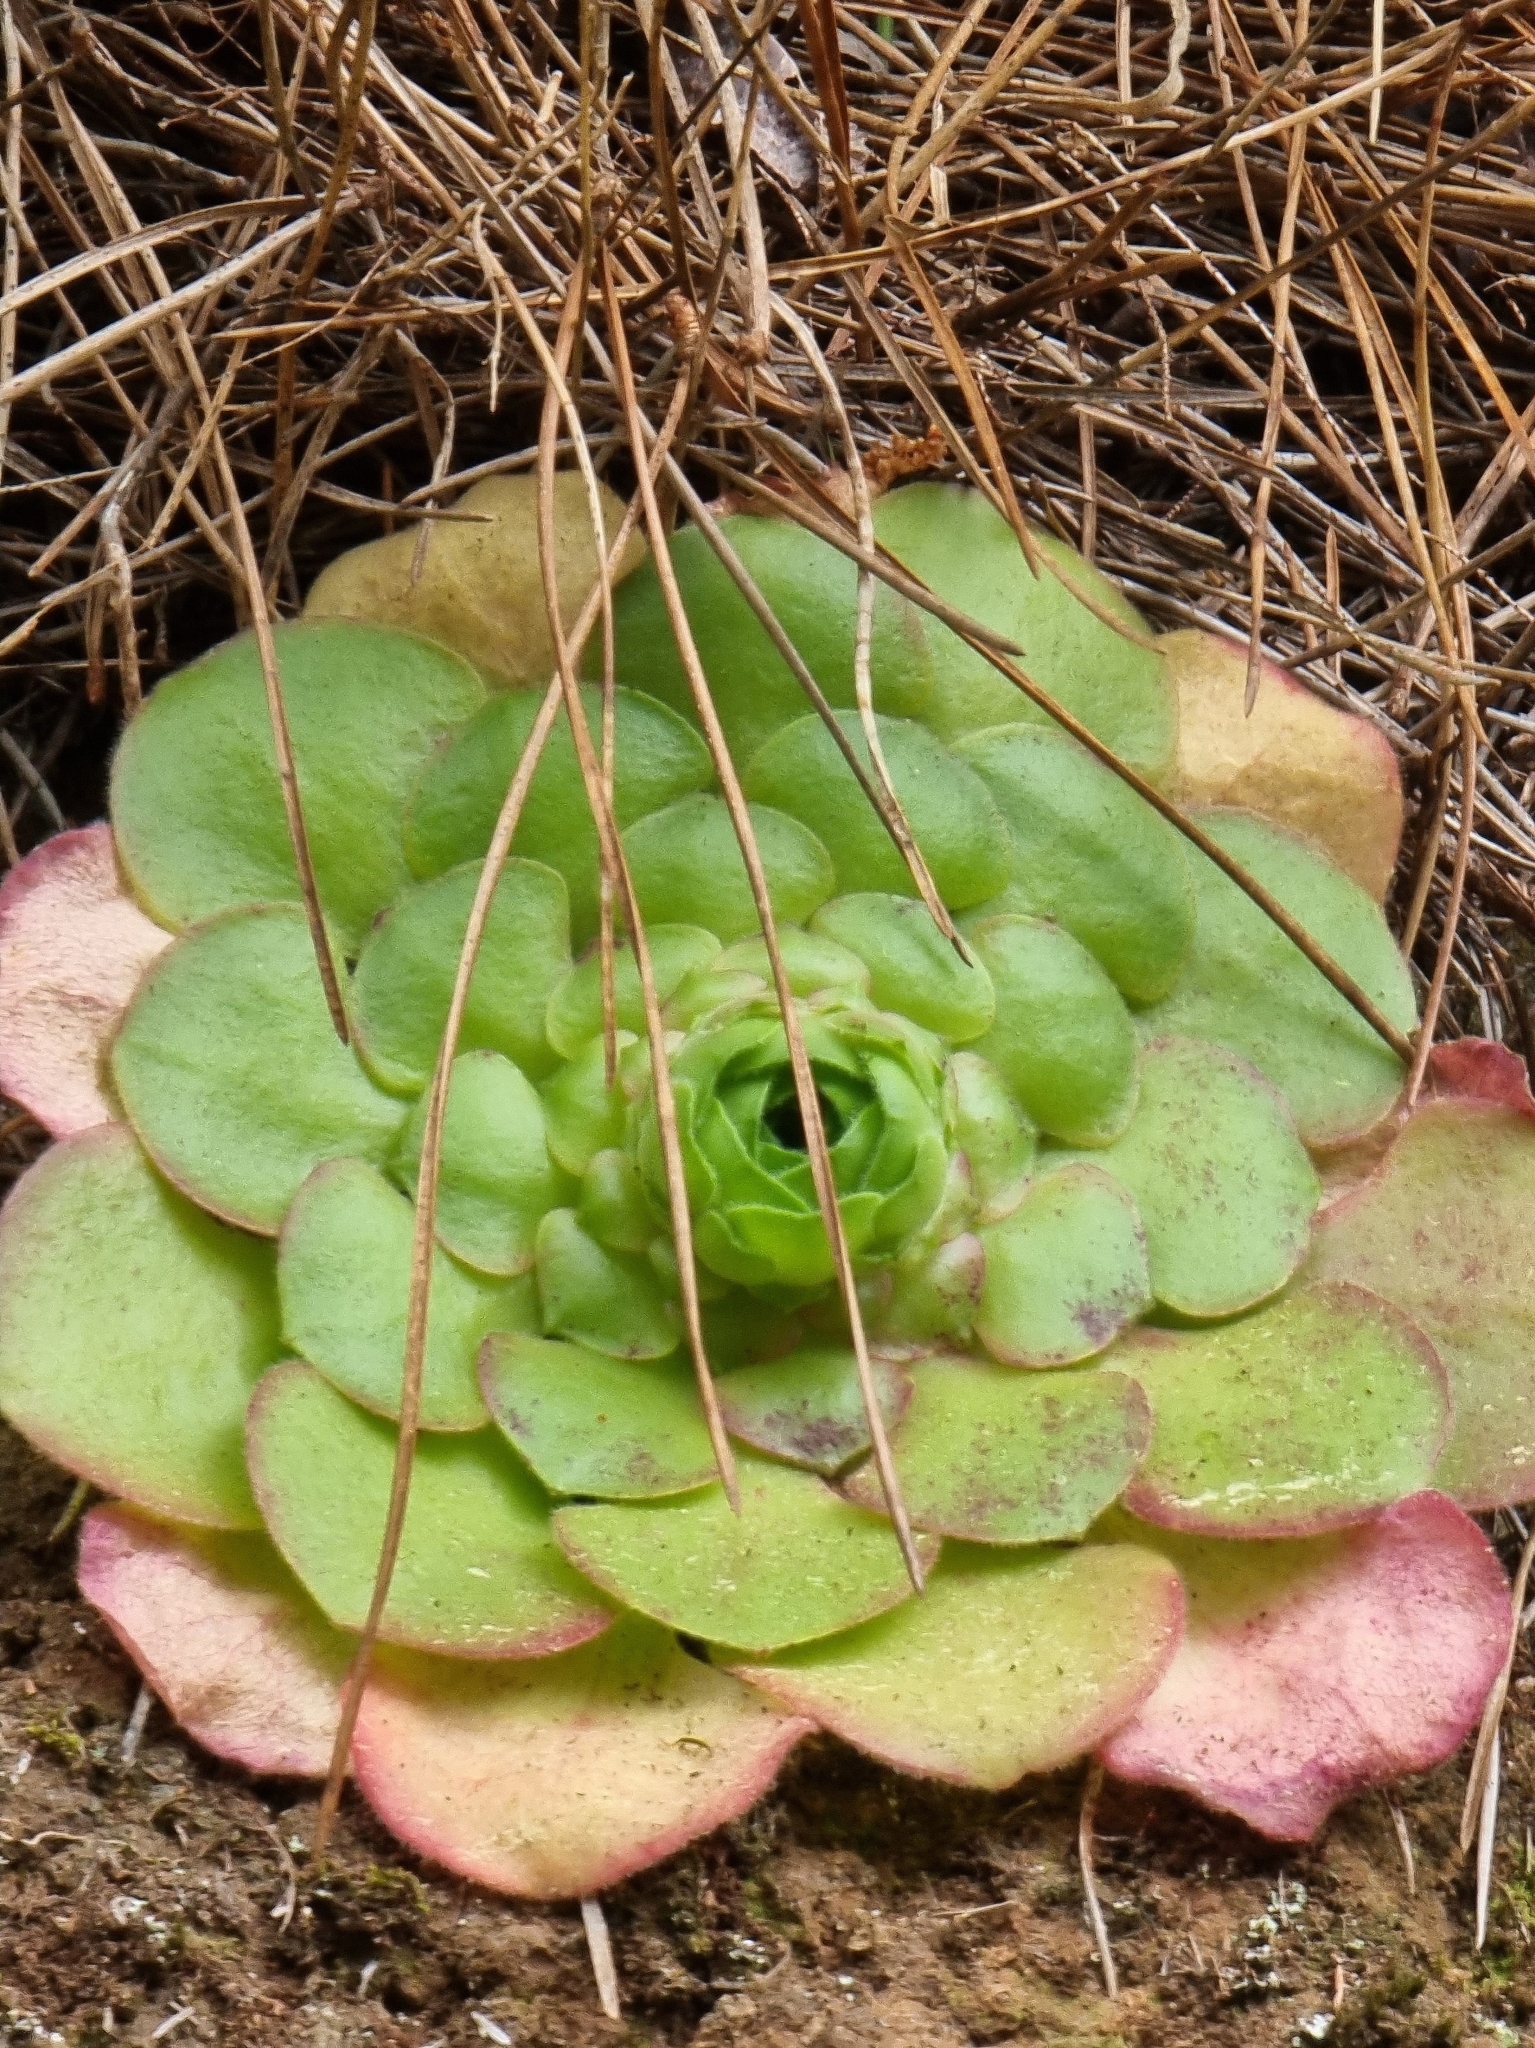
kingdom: Plantae
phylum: Tracheophyta
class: Magnoliopsida
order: Saxifragales
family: Crassulaceae
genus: Aeonium
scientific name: Aeonium glandulosum
